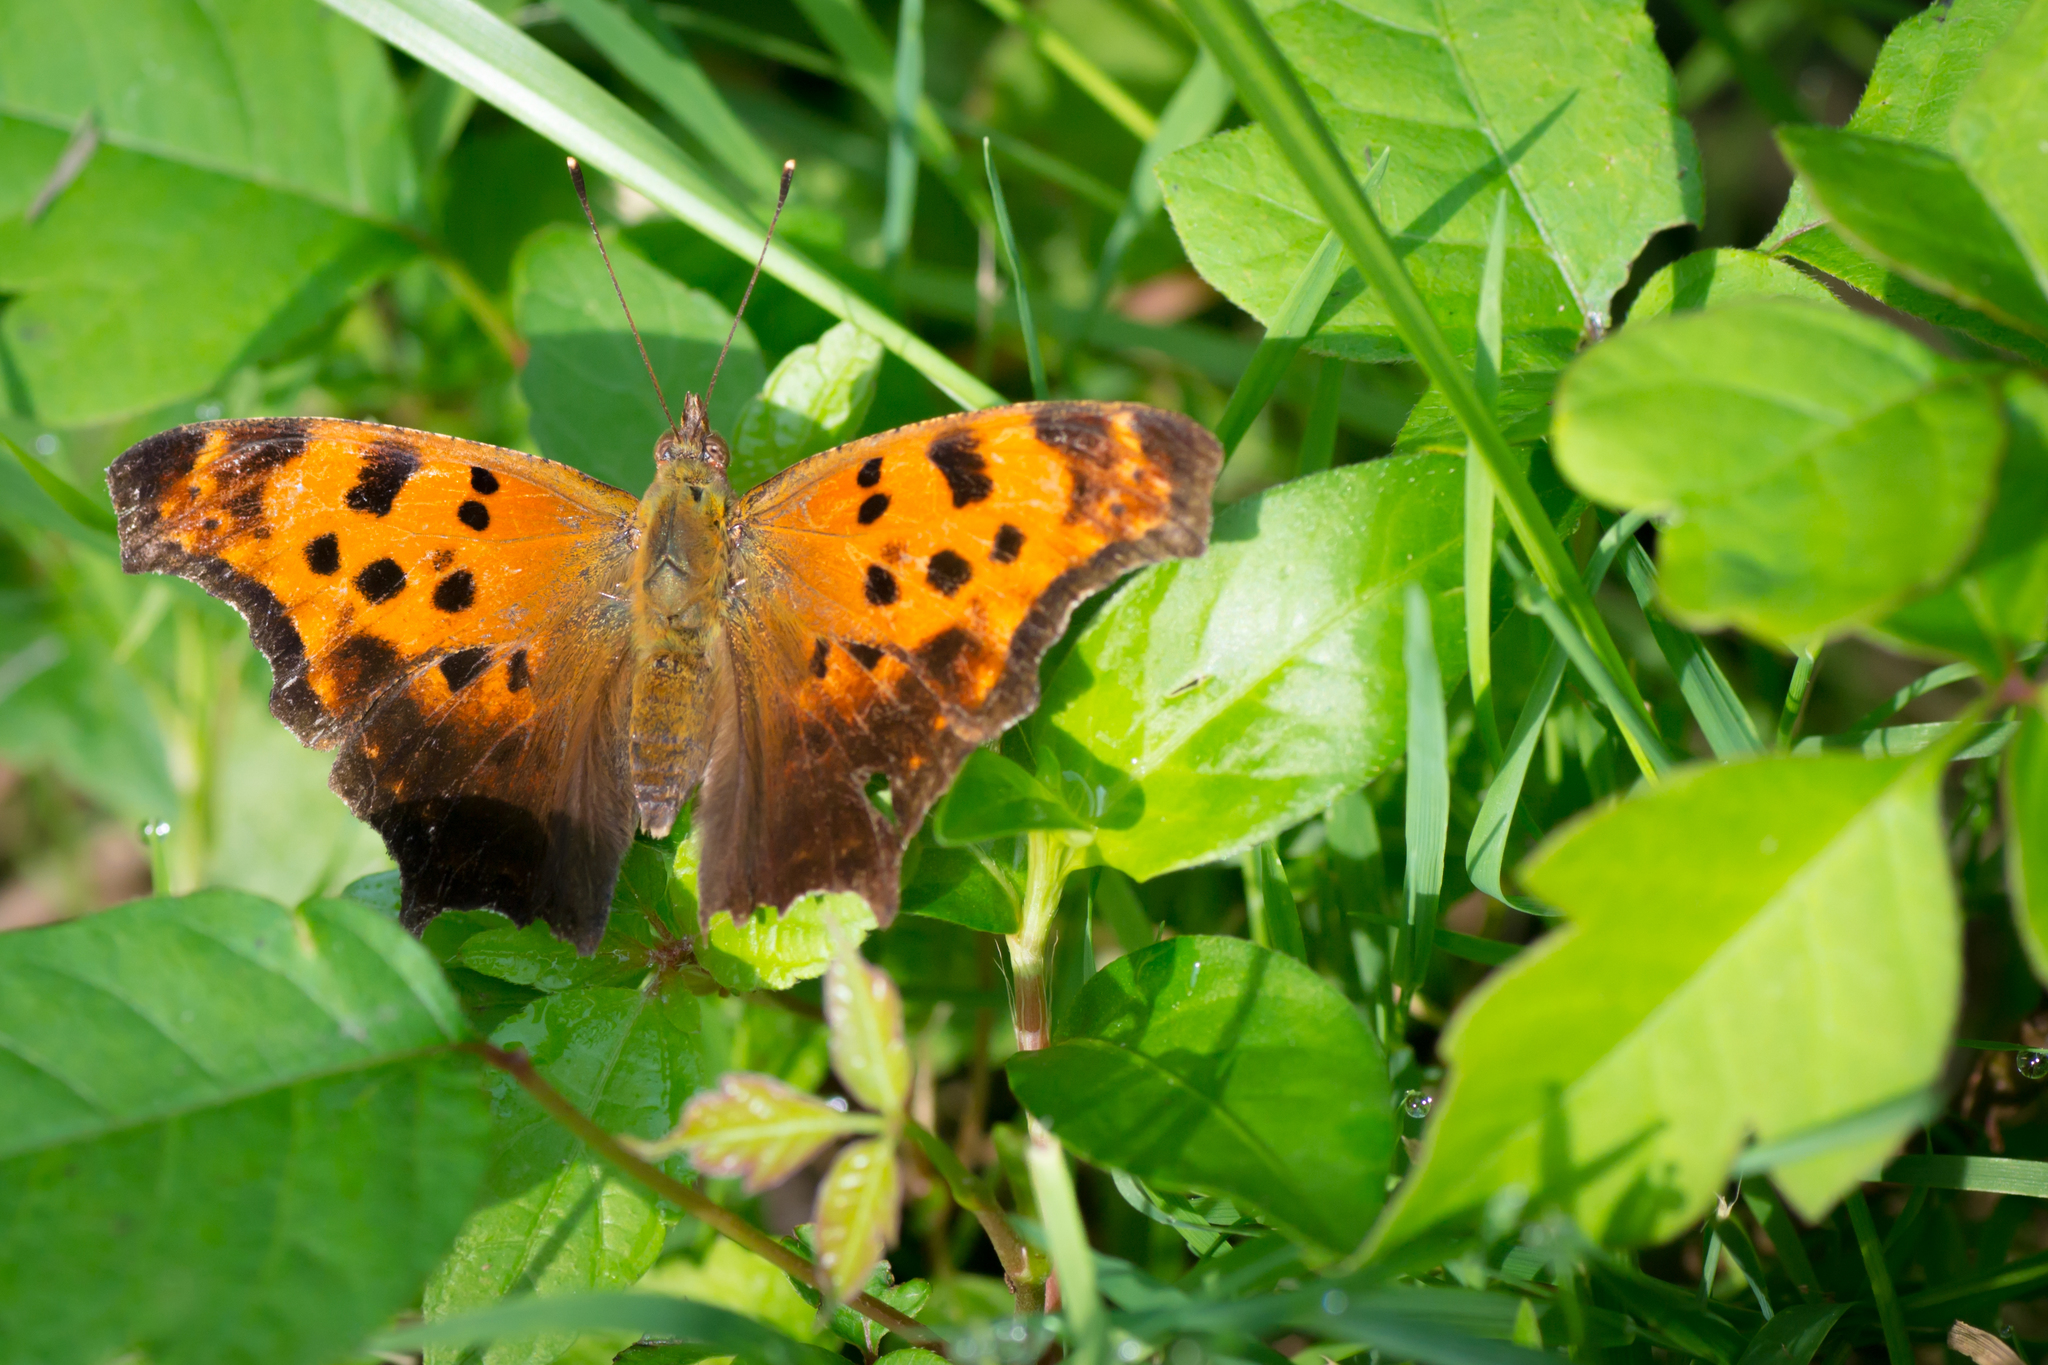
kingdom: Animalia
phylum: Arthropoda
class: Insecta
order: Lepidoptera
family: Nymphalidae
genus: Polygonia
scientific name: Polygonia comma
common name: Eastern comma
